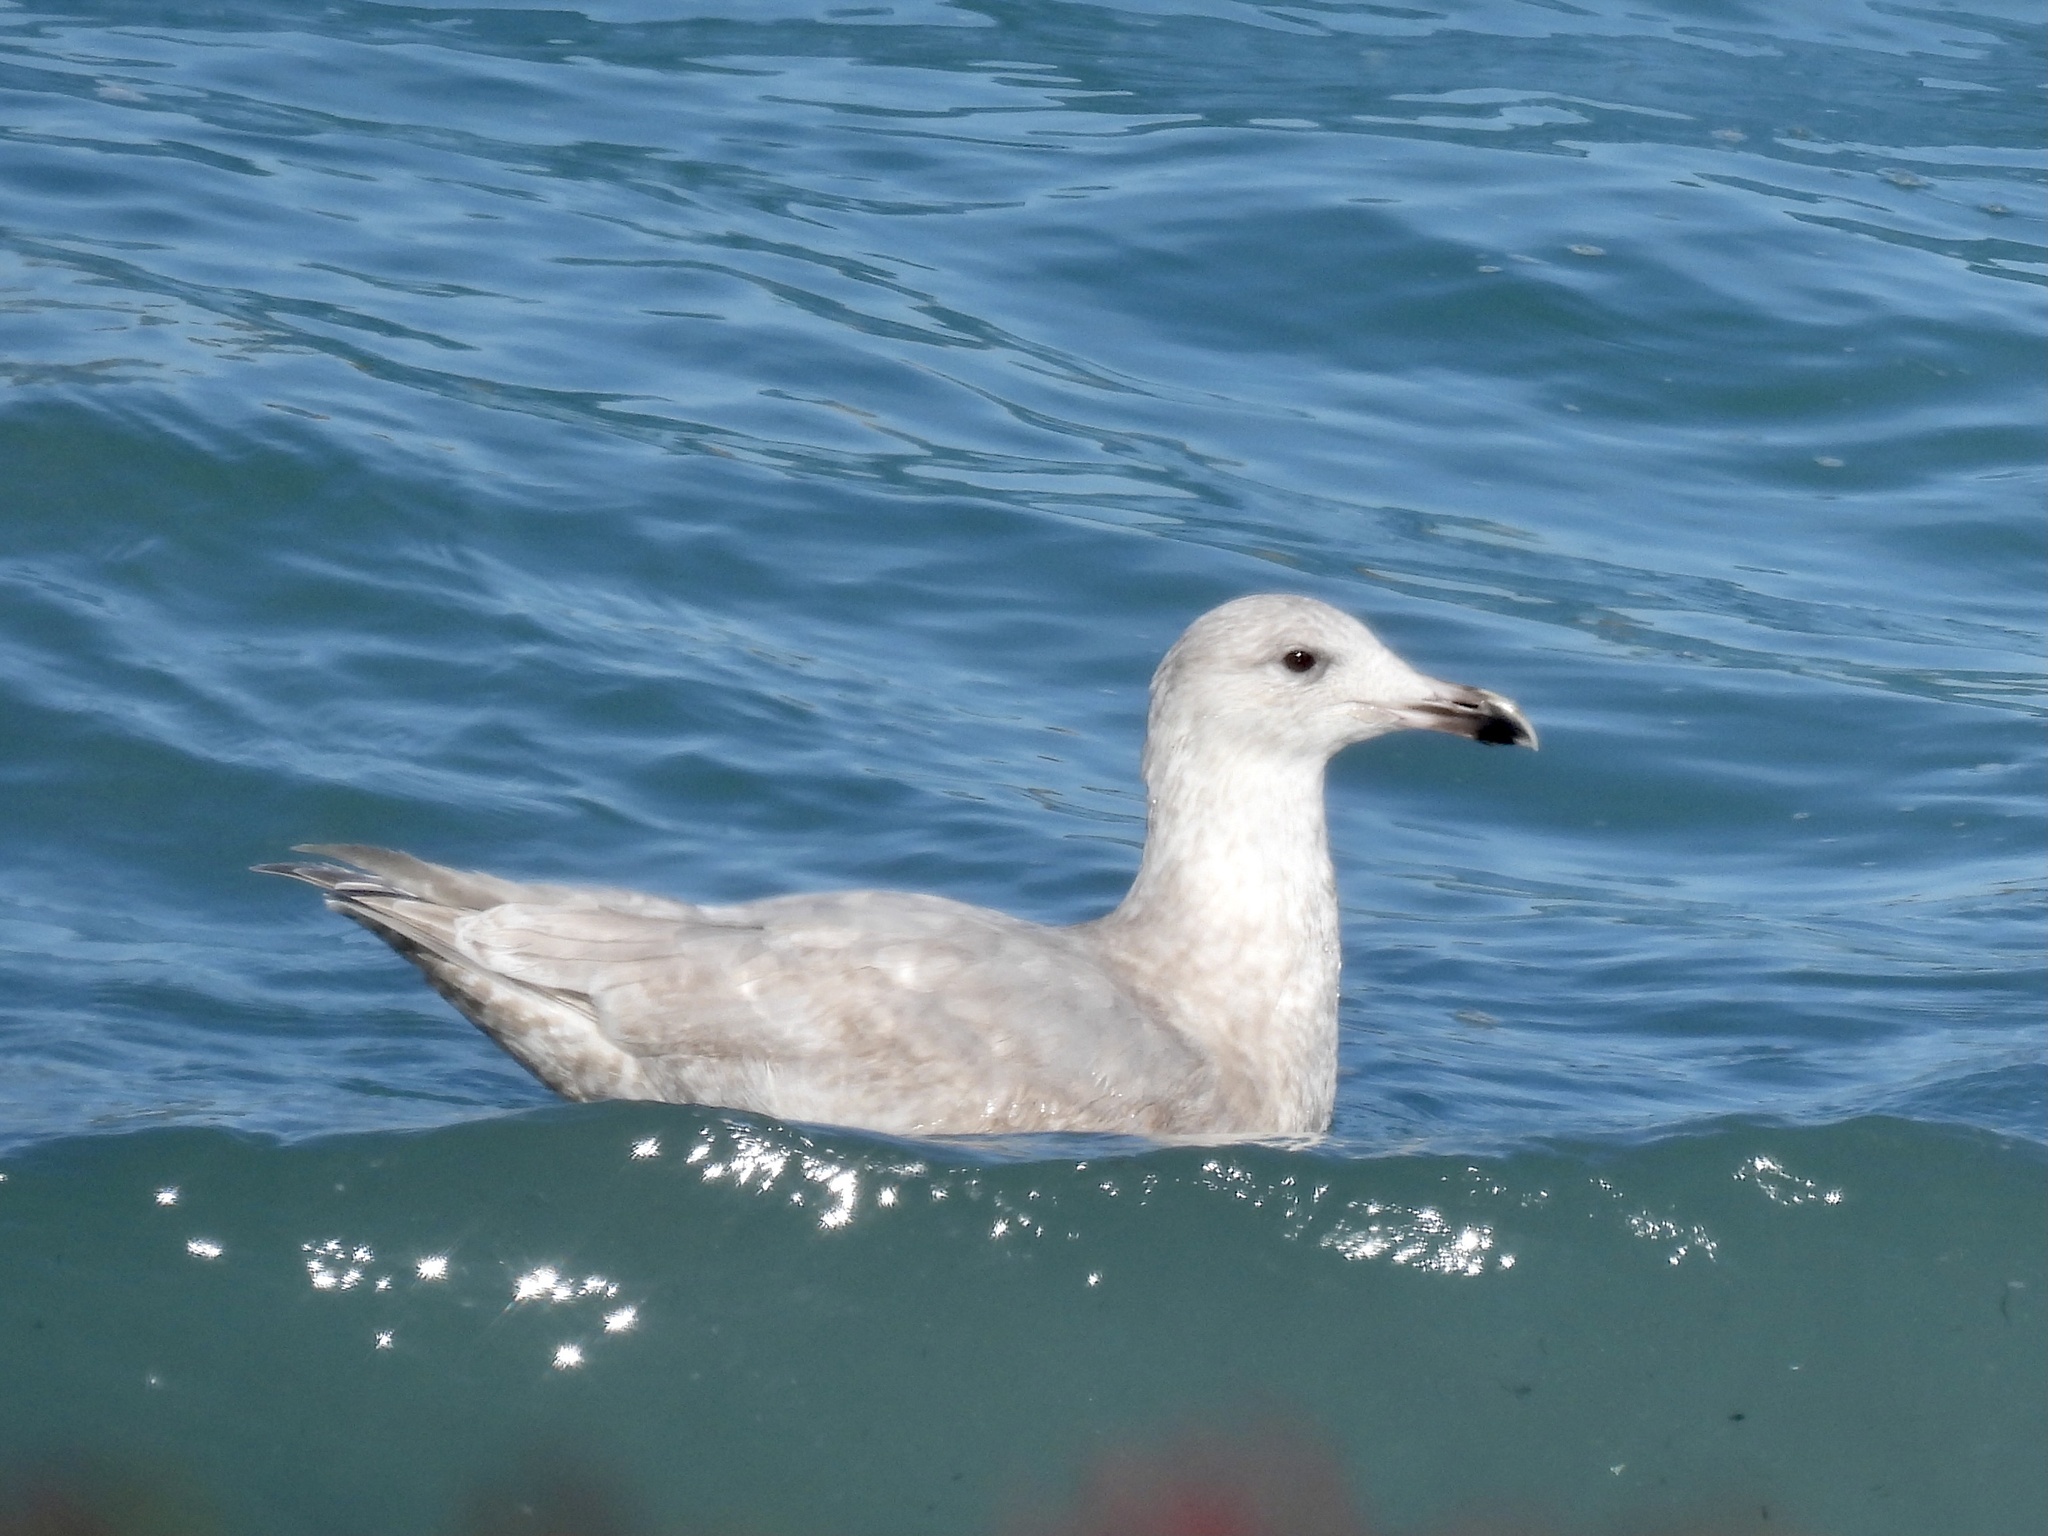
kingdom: Animalia
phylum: Chordata
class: Aves
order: Charadriiformes
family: Laridae
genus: Larus
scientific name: Larus glaucescens
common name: Glaucous-winged gull
